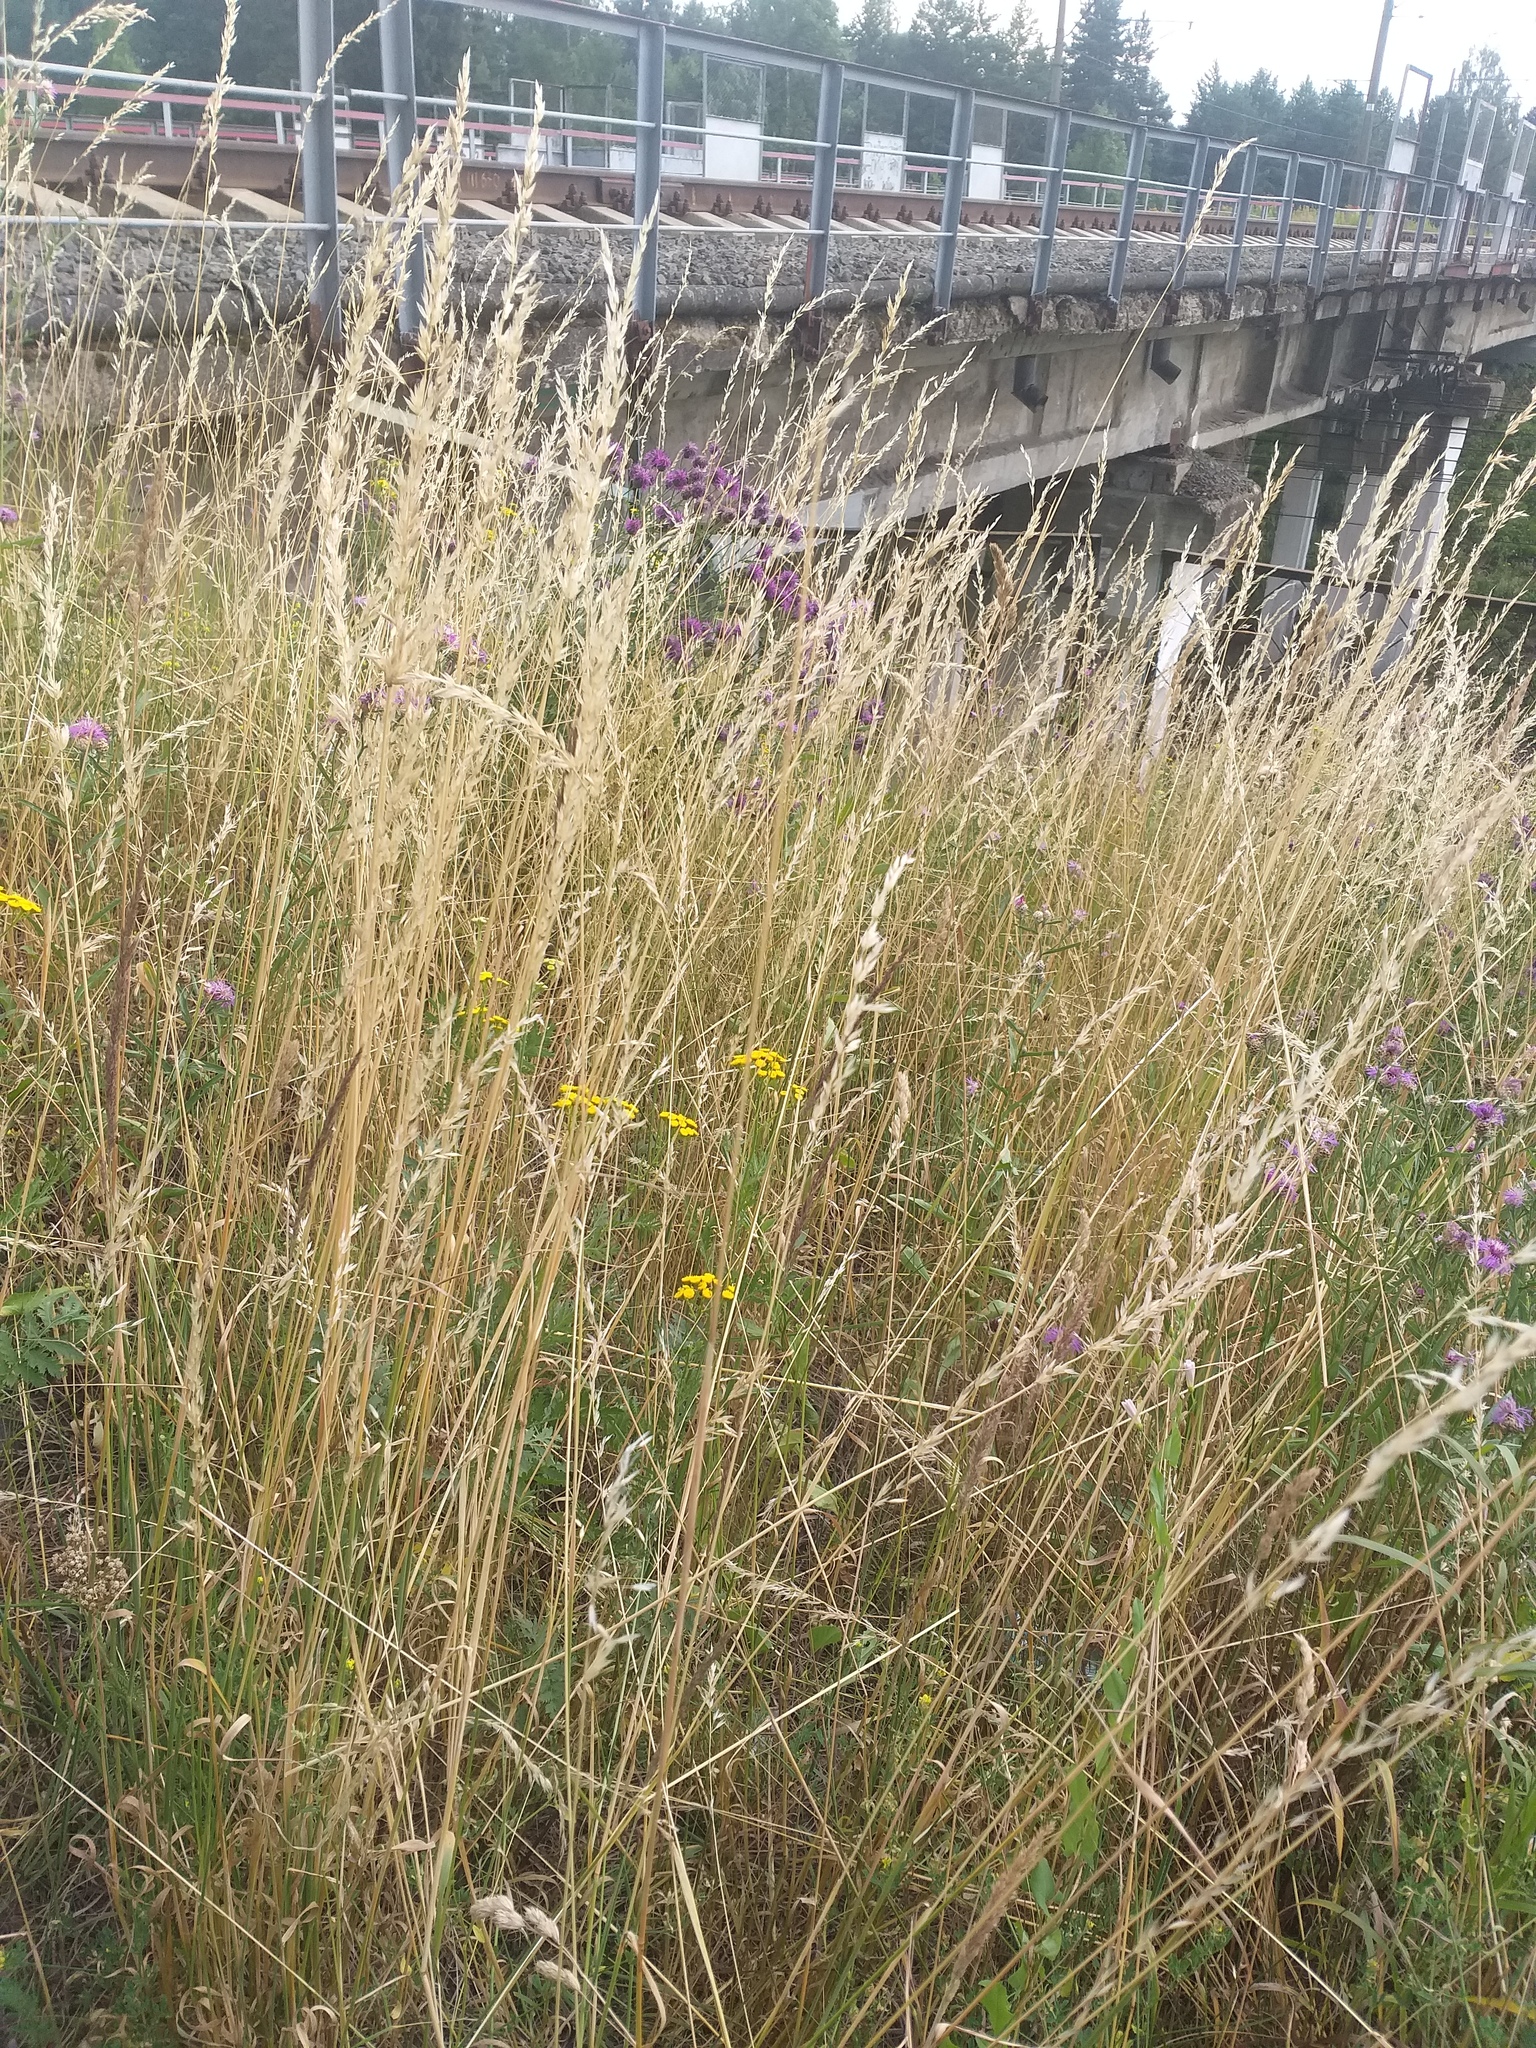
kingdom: Plantae
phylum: Tracheophyta
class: Magnoliopsida
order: Asterales
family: Asteraceae
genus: Tanacetum
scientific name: Tanacetum vulgare
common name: Common tansy
